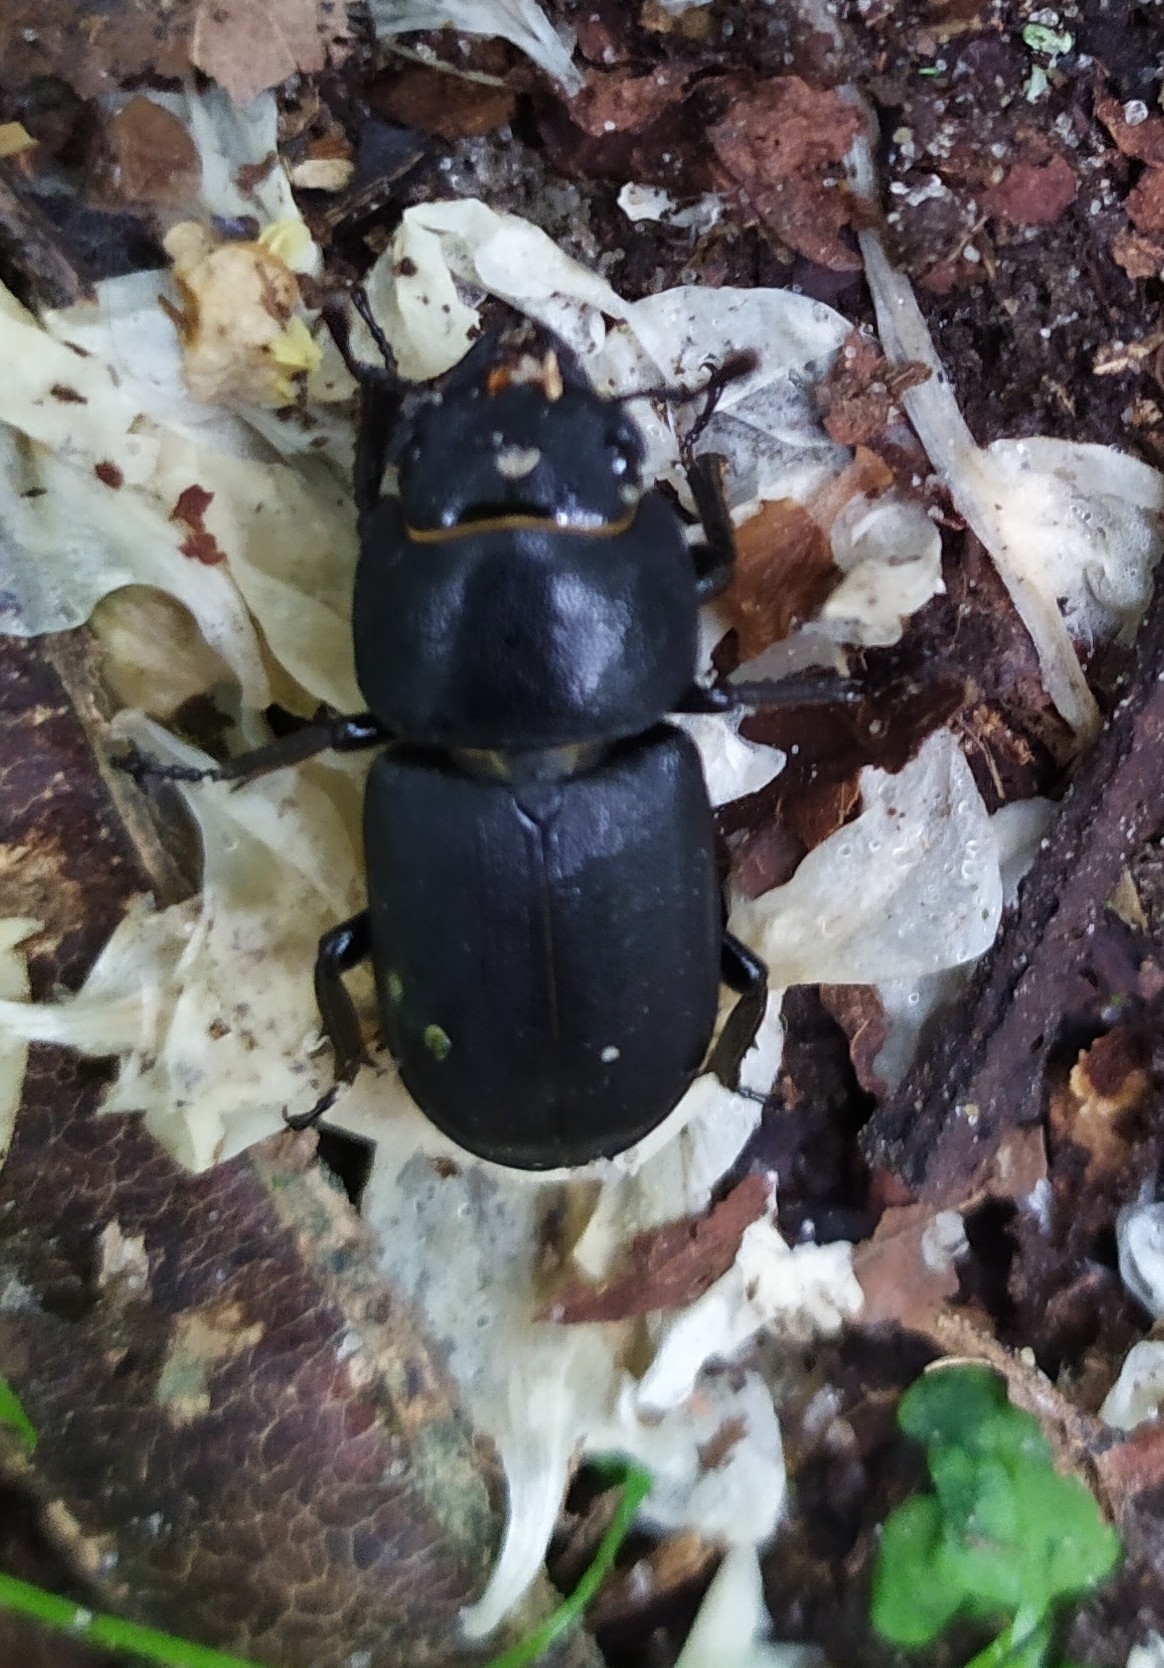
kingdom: Animalia
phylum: Arthropoda
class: Insecta
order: Coleoptera
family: Lucanidae
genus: Dorcus
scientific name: Dorcus parallelipipedus
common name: Lesser stag beetle
